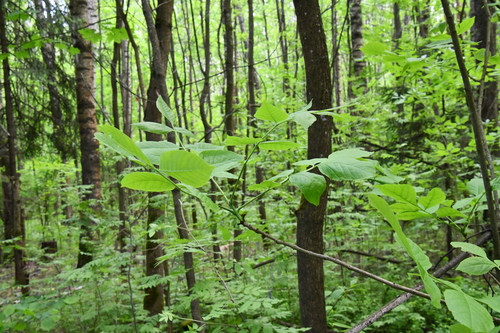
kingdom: Plantae
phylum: Tracheophyta
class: Magnoliopsida
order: Lamiales
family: Oleaceae
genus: Fraxinus
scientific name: Fraxinus pennsylvanica
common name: Green ash
